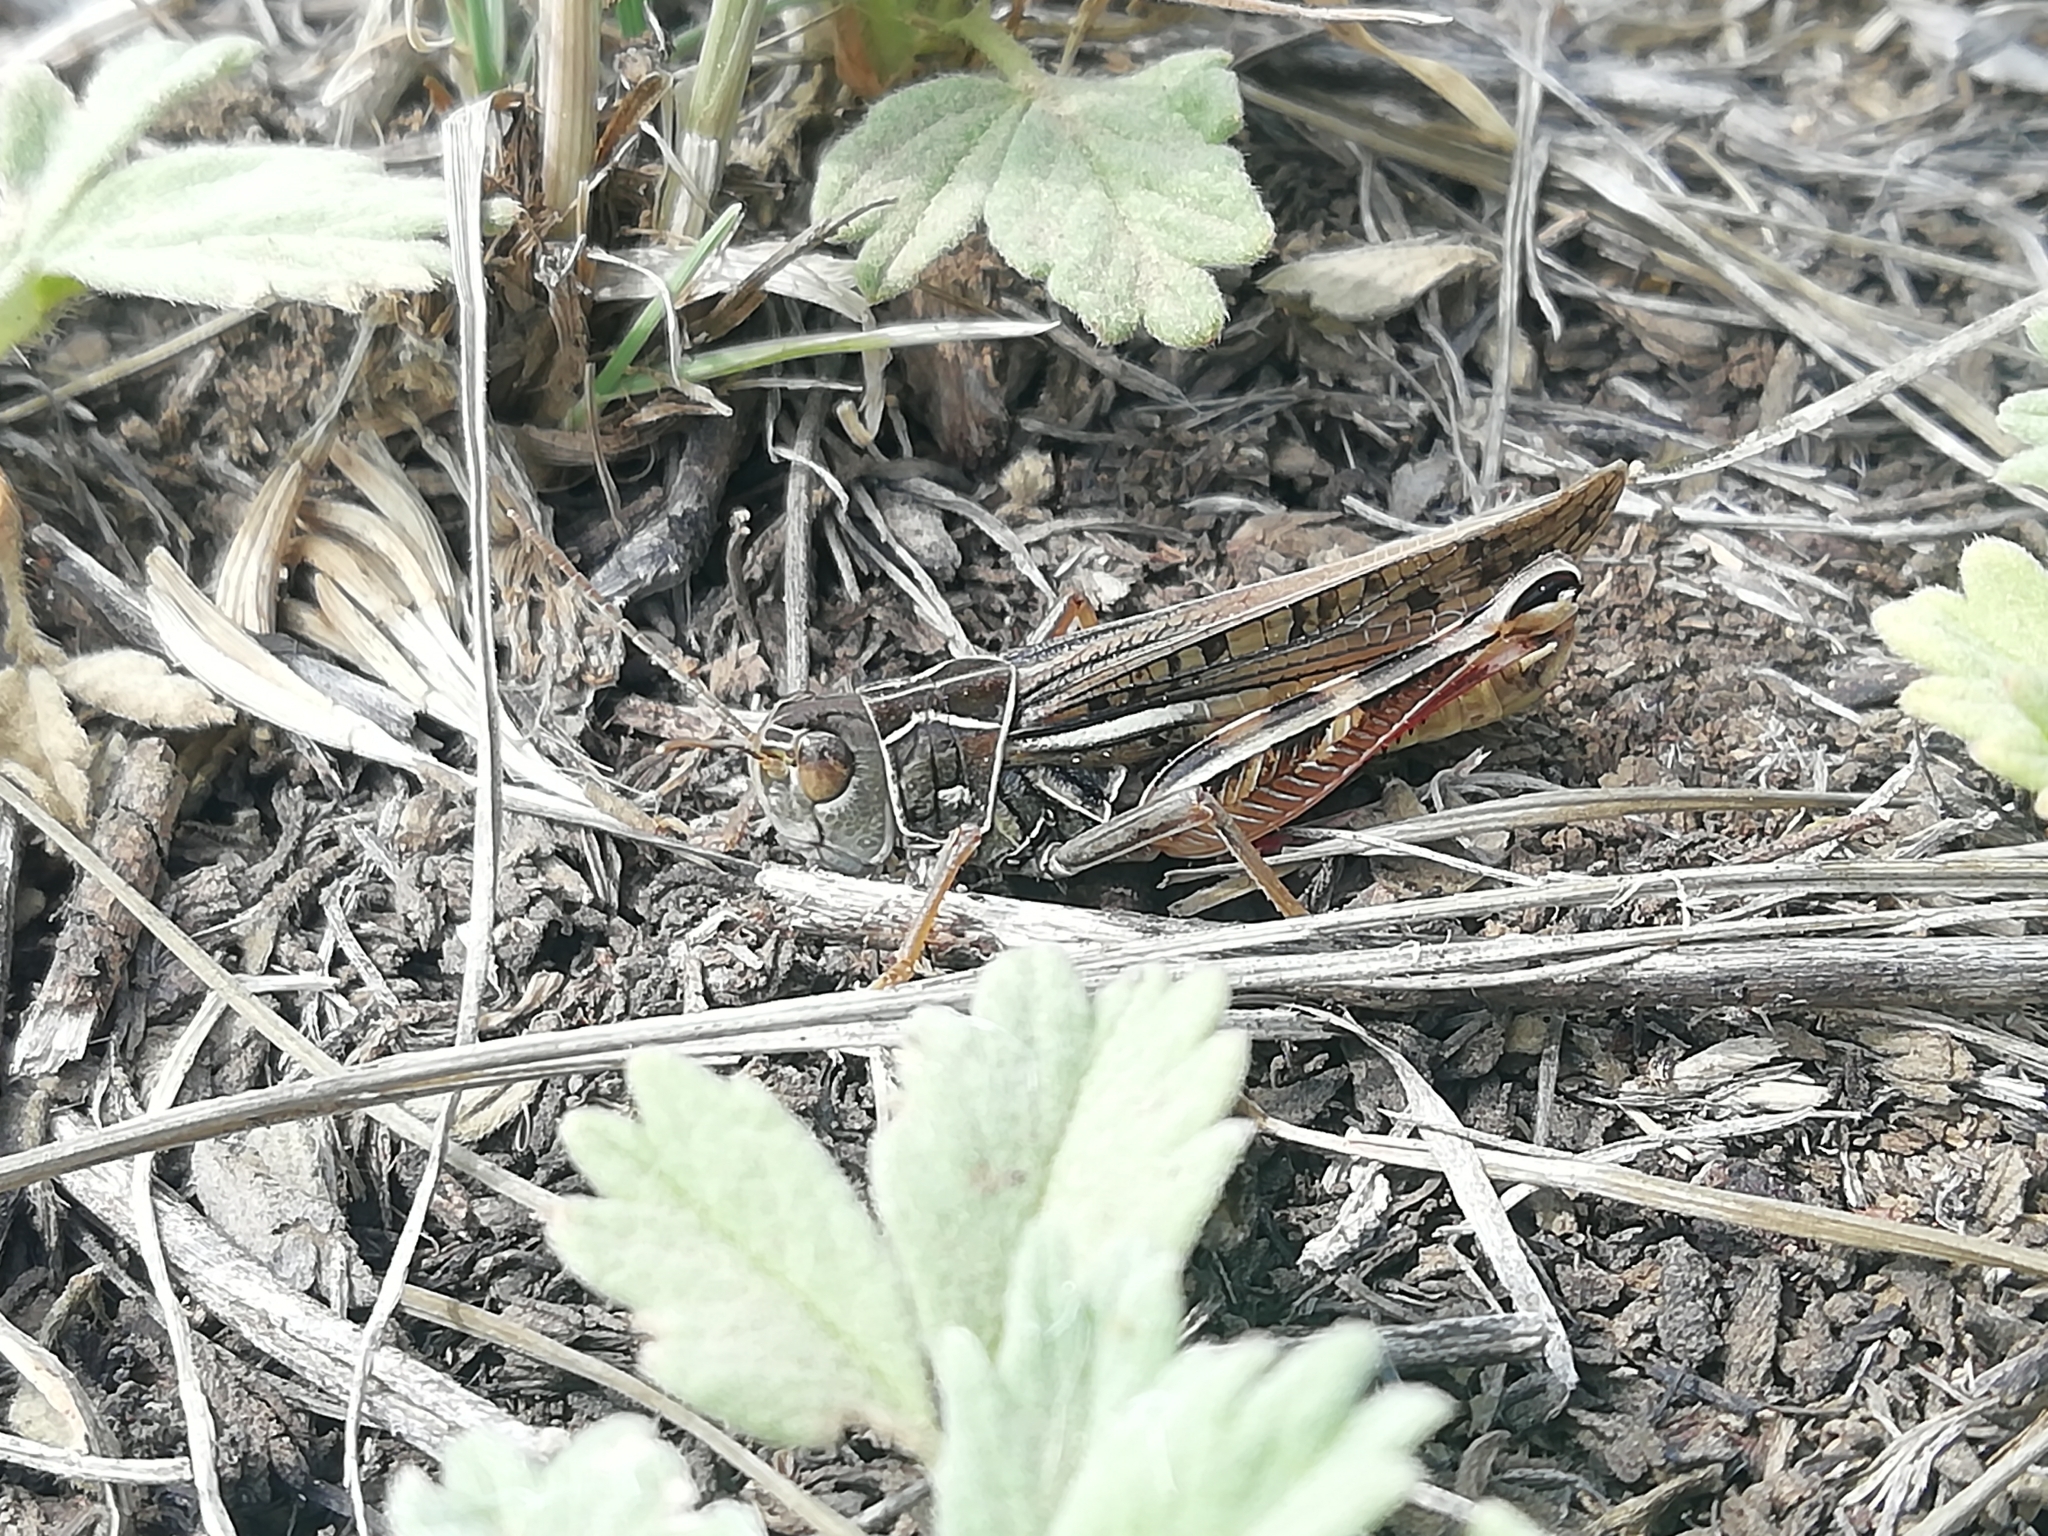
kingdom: Animalia
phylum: Arthropoda
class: Insecta
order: Orthoptera
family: Acrididae
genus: Arcyptera
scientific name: Arcyptera microptera
